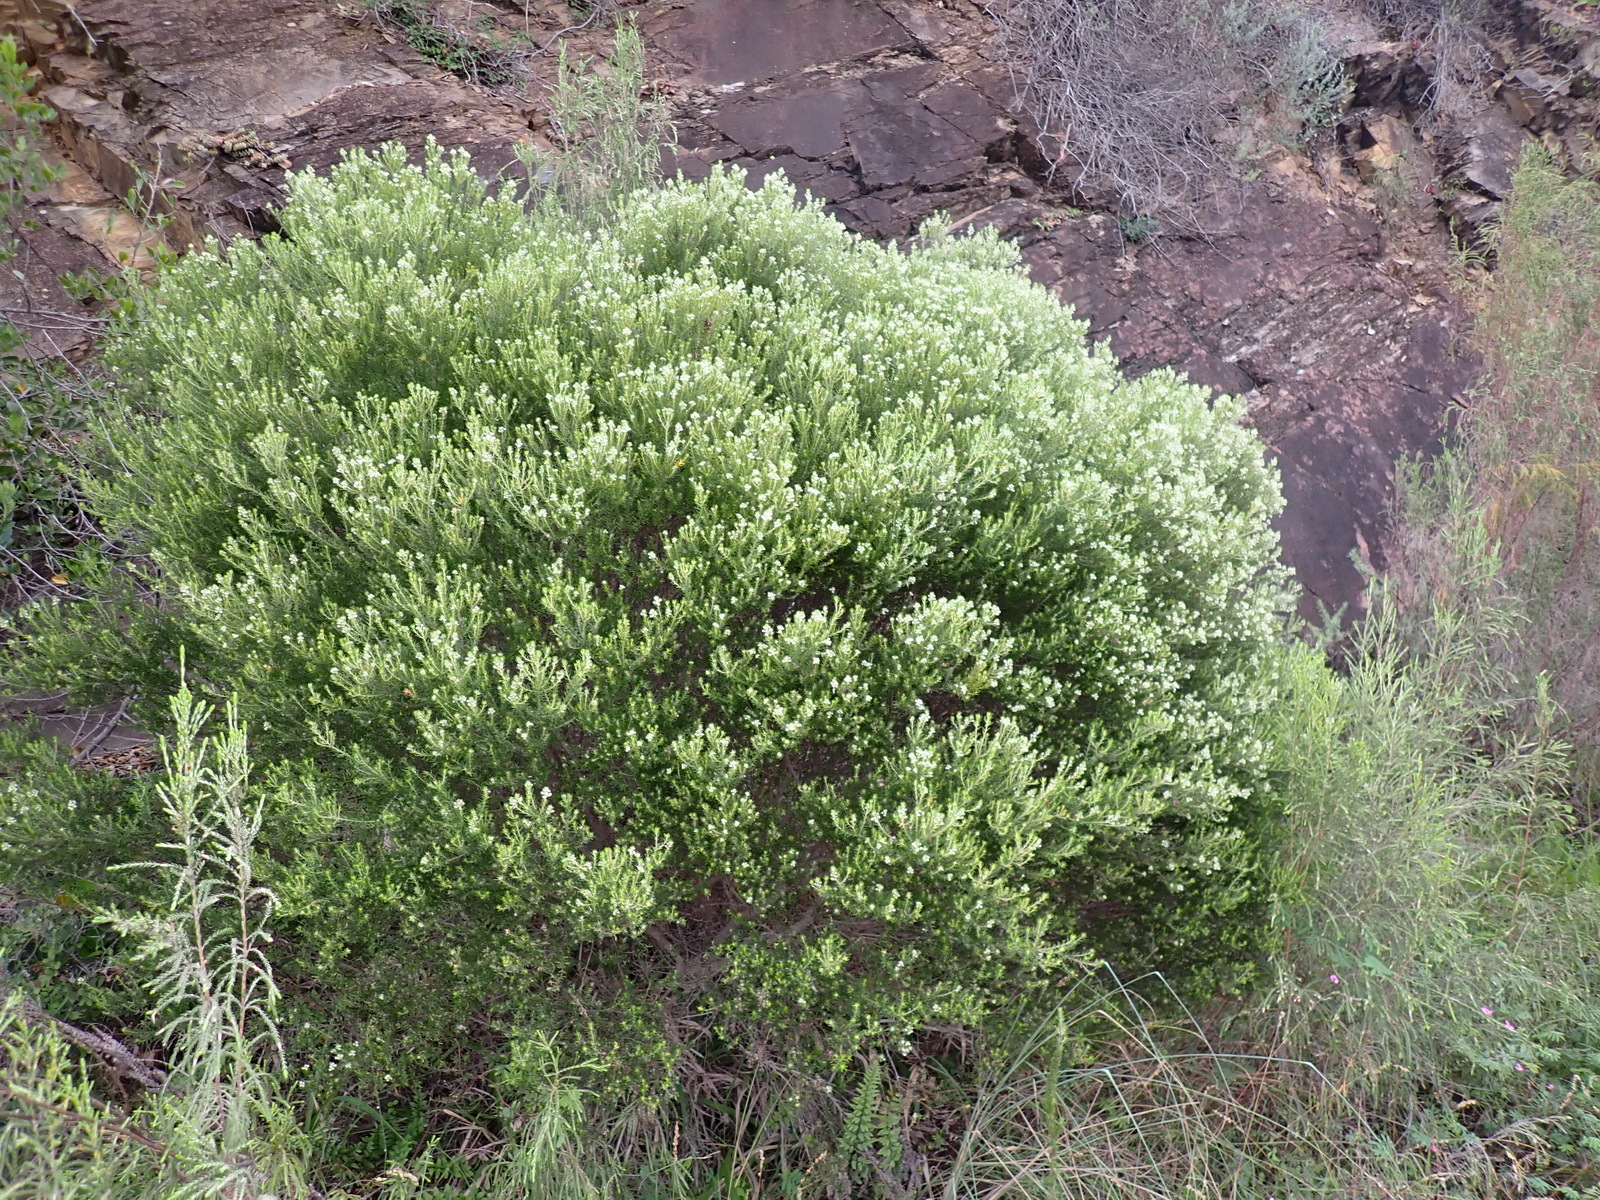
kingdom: Plantae
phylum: Tracheophyta
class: Magnoliopsida
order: Rosales
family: Rhamnaceae
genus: Phylica
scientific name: Phylica axillaris
